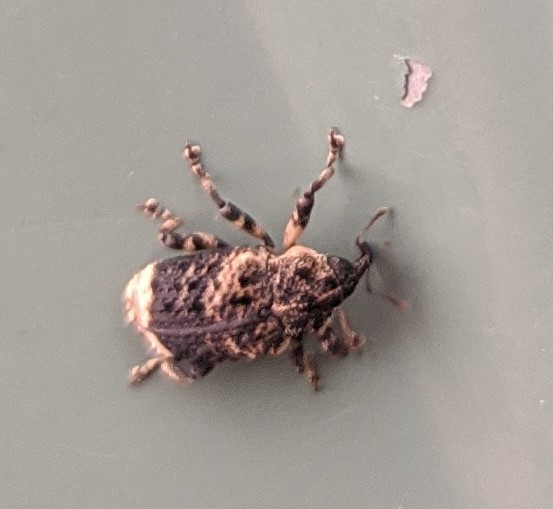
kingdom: Animalia
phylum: Arthropoda
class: Insecta
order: Coleoptera
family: Curculionidae
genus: Cryptorhynchus
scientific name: Cryptorhynchus lapathi
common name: Weevil
